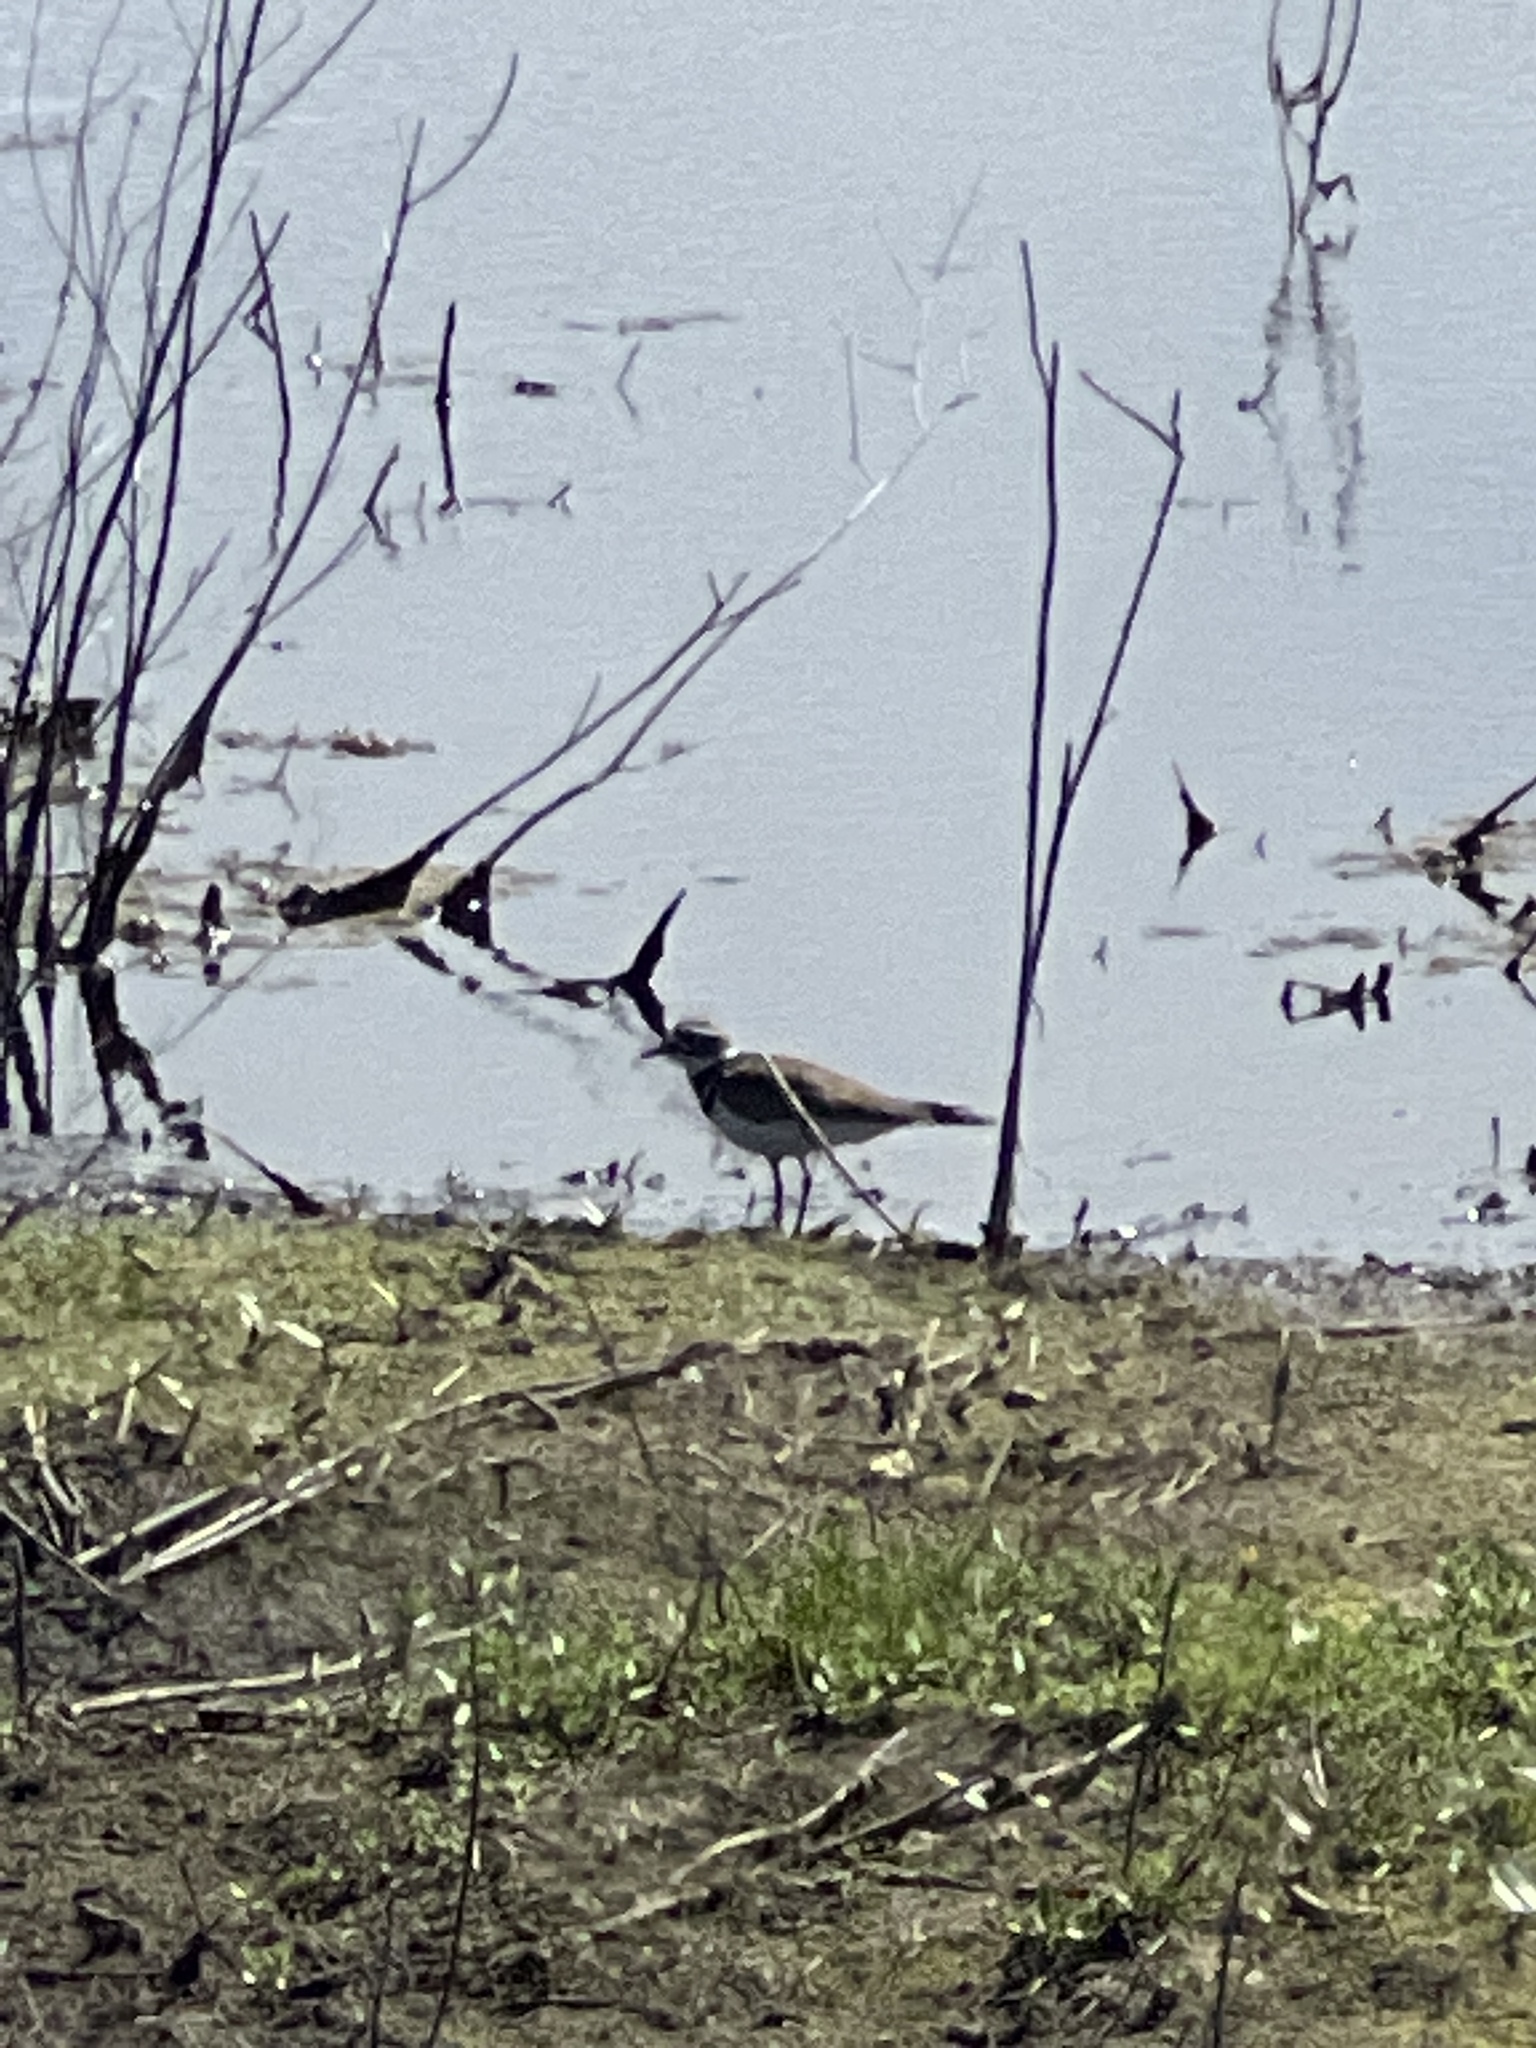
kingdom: Animalia
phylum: Chordata
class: Aves
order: Charadriiformes
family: Charadriidae
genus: Charadrius
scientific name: Charadrius vociferus
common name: Killdeer
